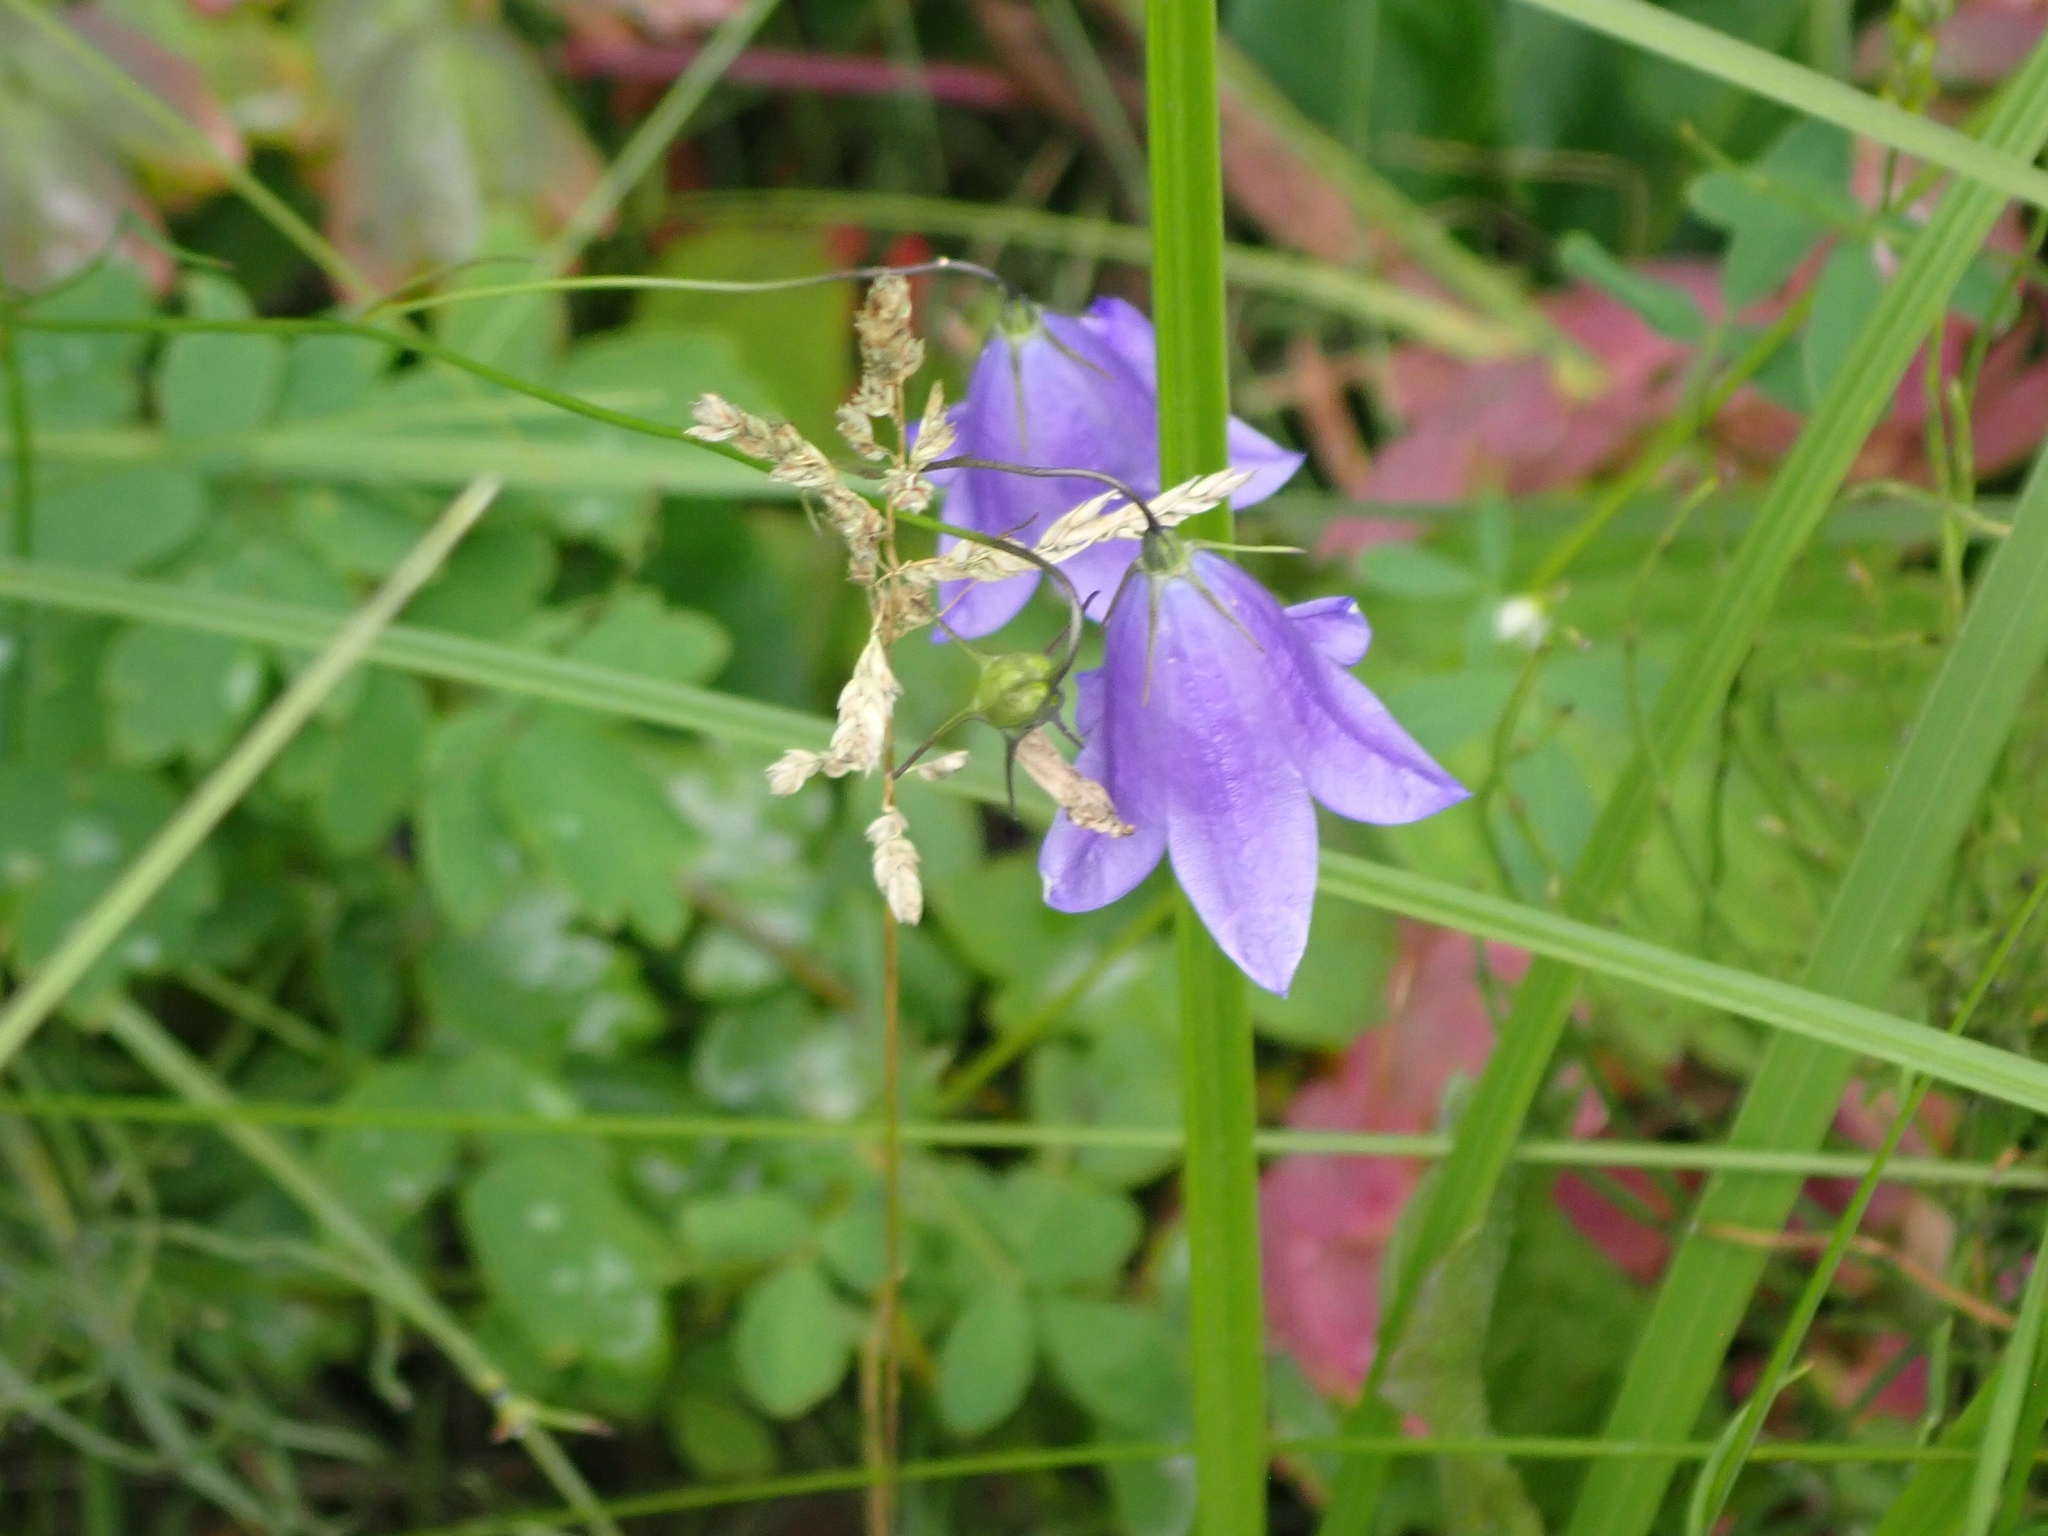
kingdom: Plantae
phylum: Tracheophyta
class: Magnoliopsida
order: Asterales
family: Campanulaceae
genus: Campanula
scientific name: Campanula petiolata
